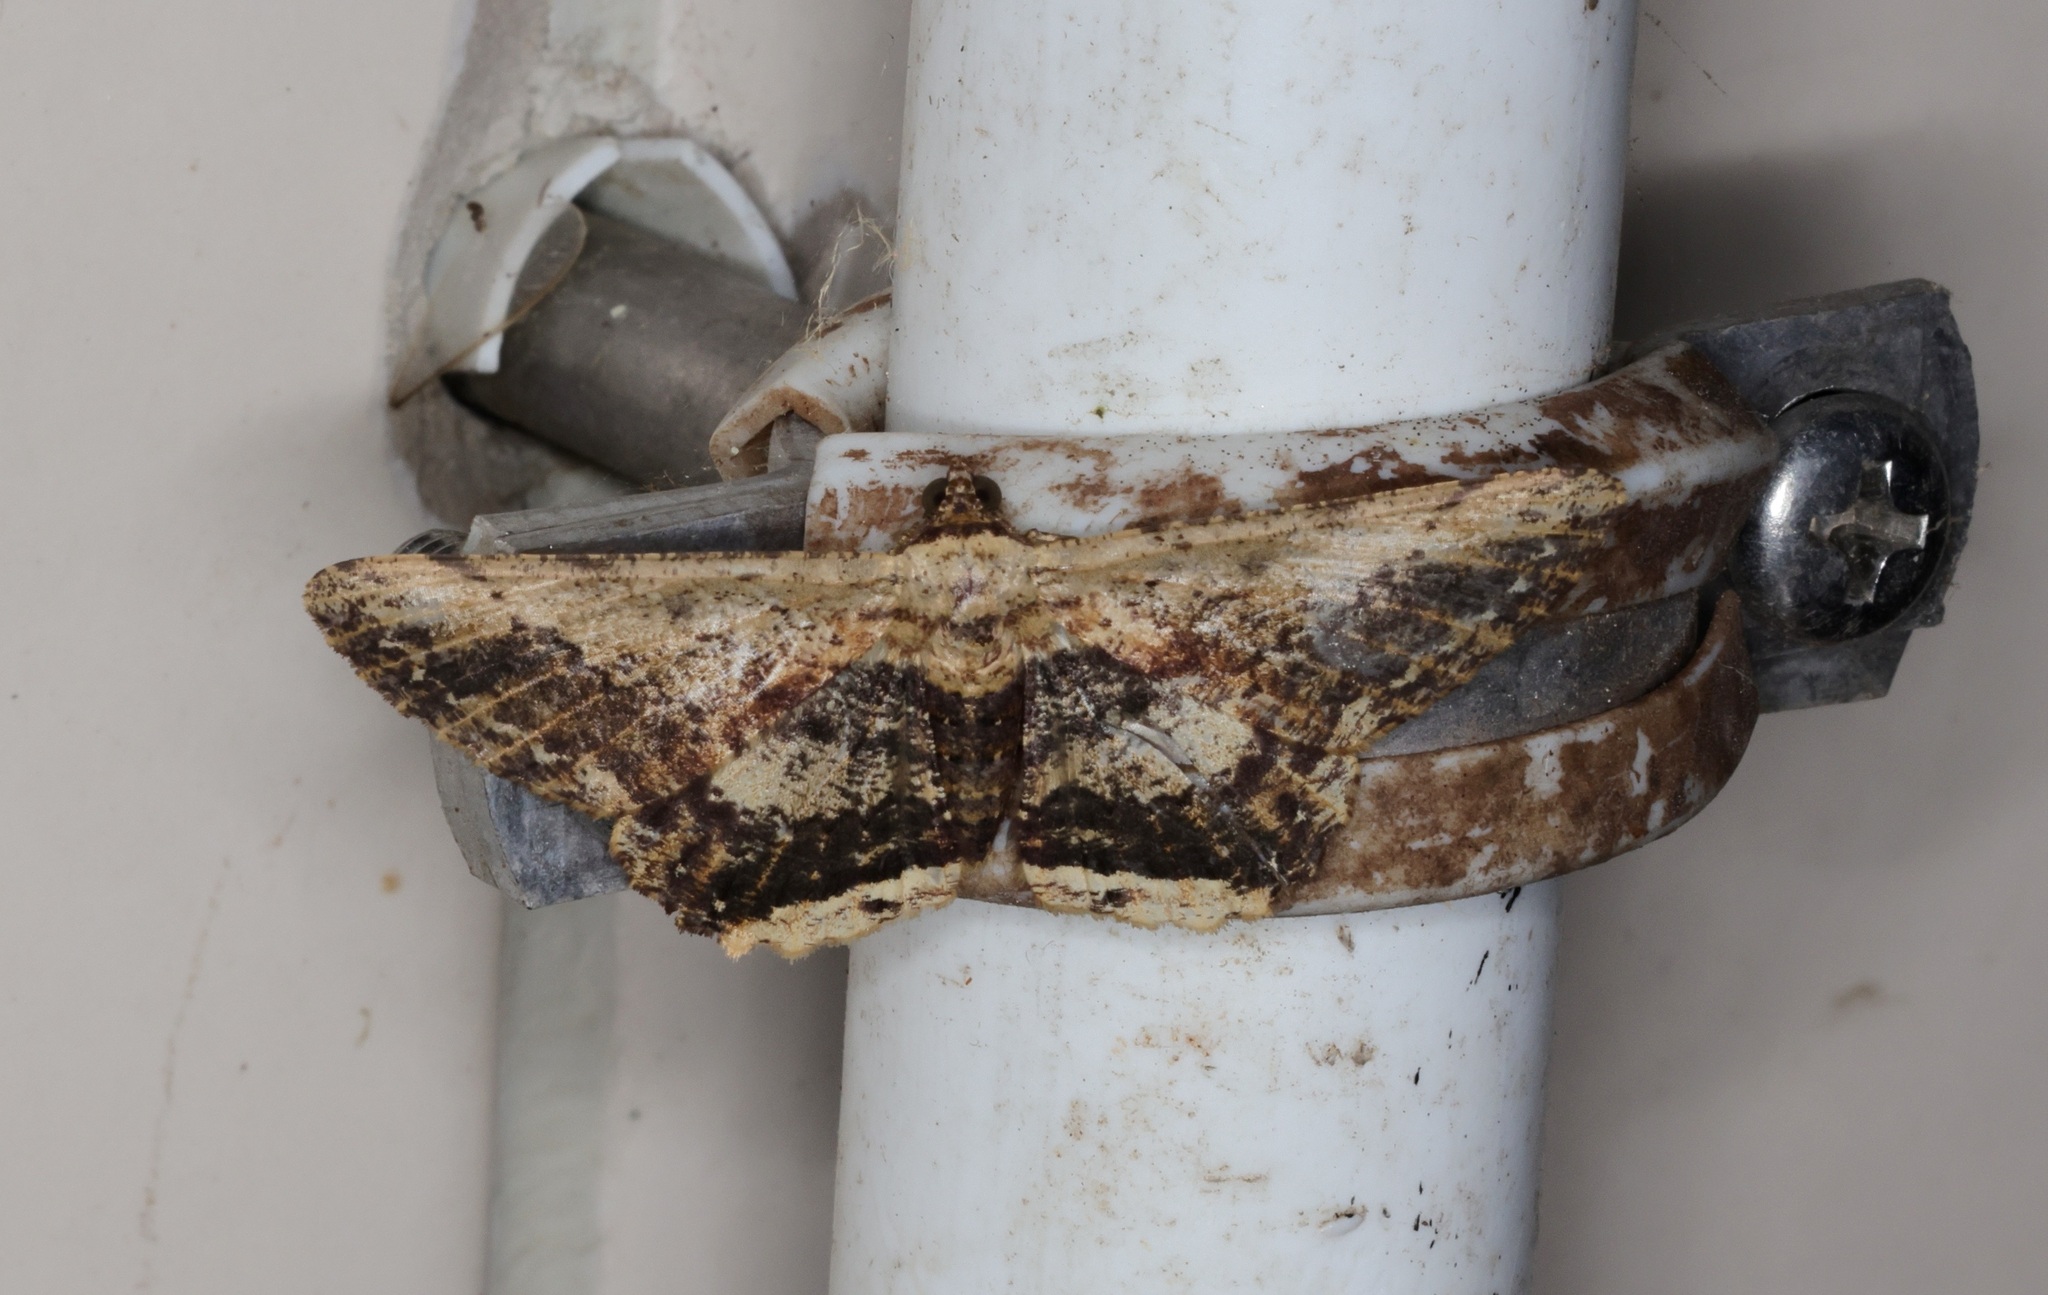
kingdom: Animalia
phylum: Arthropoda
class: Insecta
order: Lepidoptera
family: Geometridae
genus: Ruttellerona
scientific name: Ruttellerona pseudocessaria
